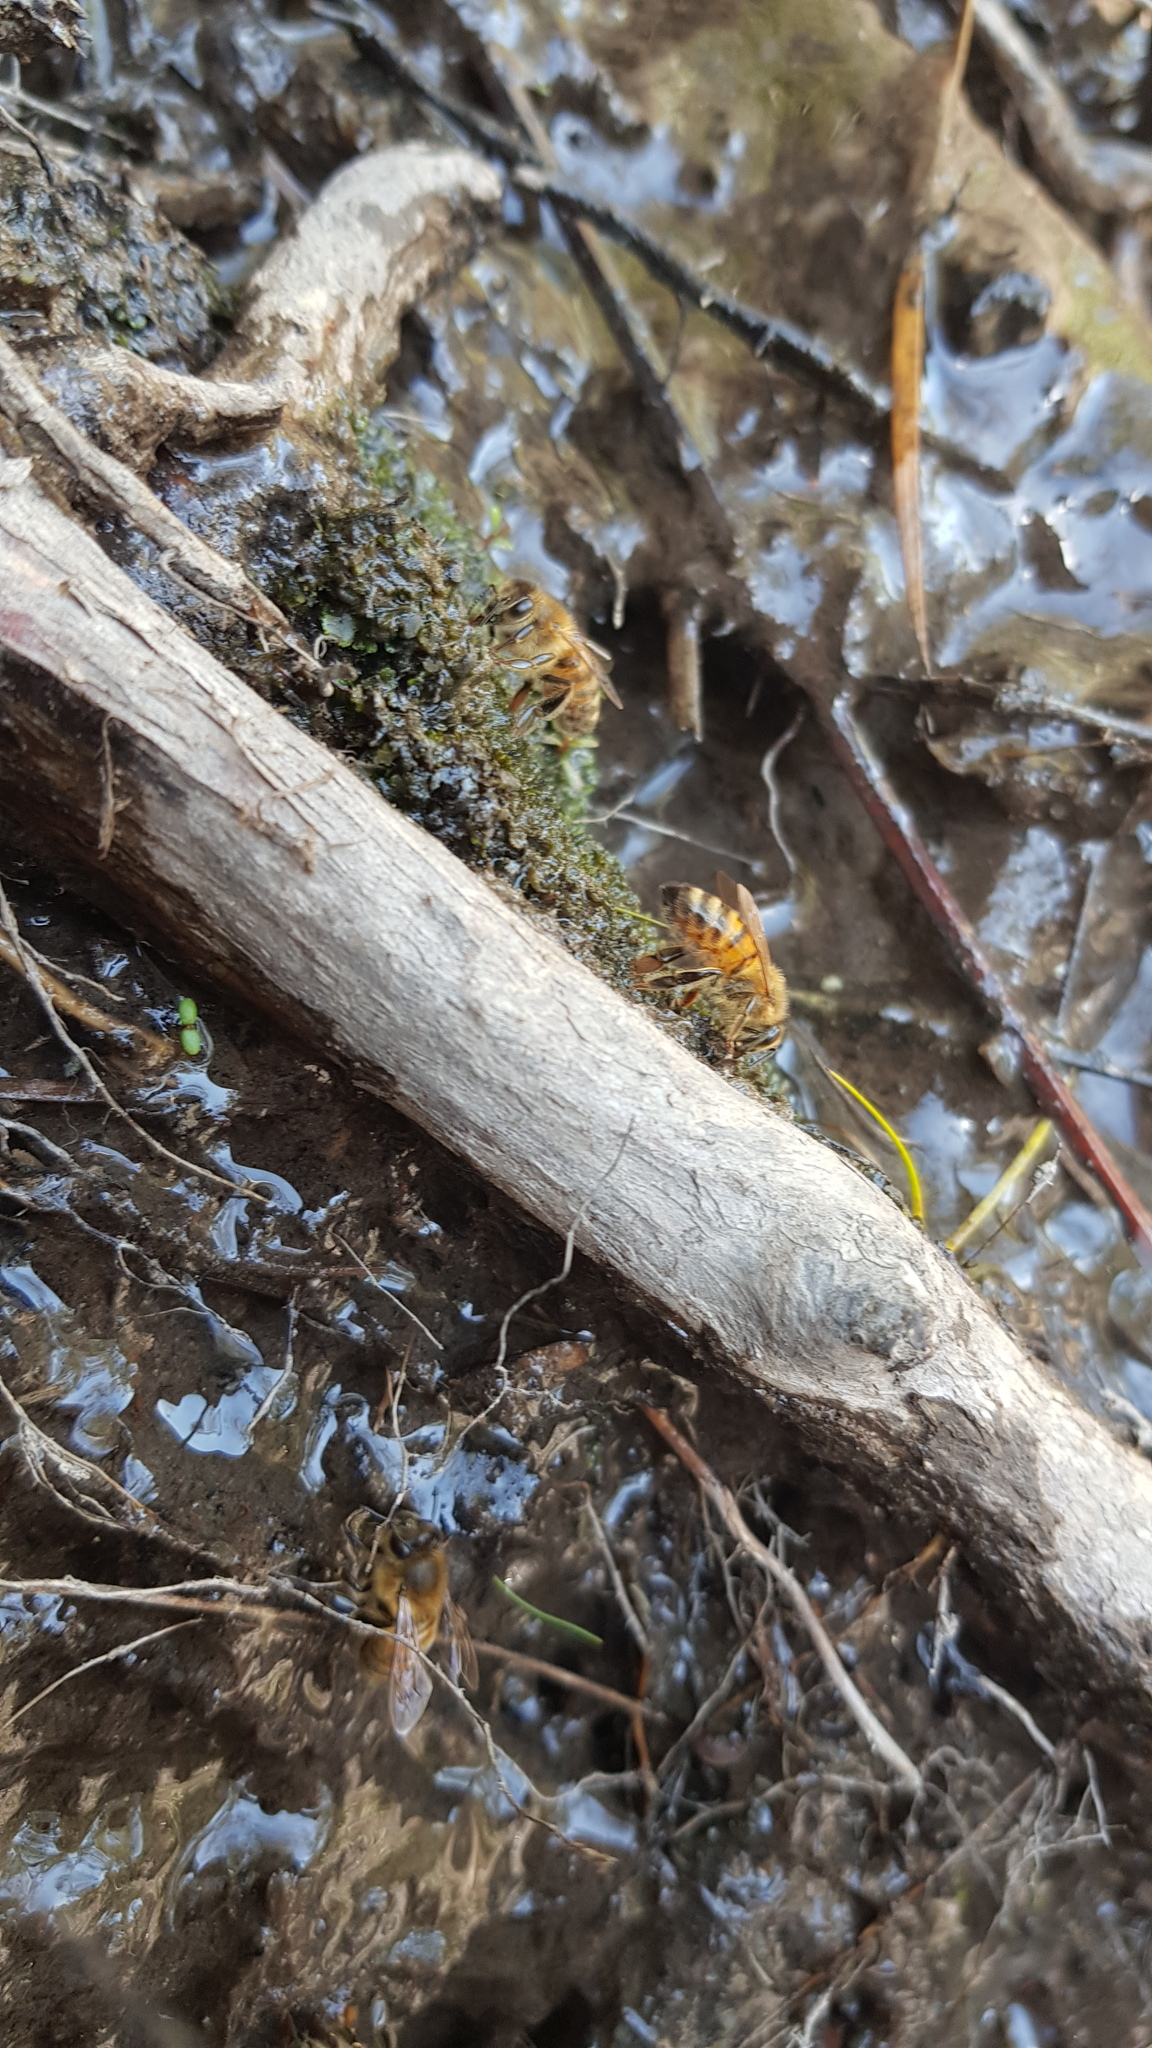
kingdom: Animalia
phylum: Arthropoda
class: Insecta
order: Hymenoptera
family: Apidae
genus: Apis
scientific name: Apis mellifera
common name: Honey bee
